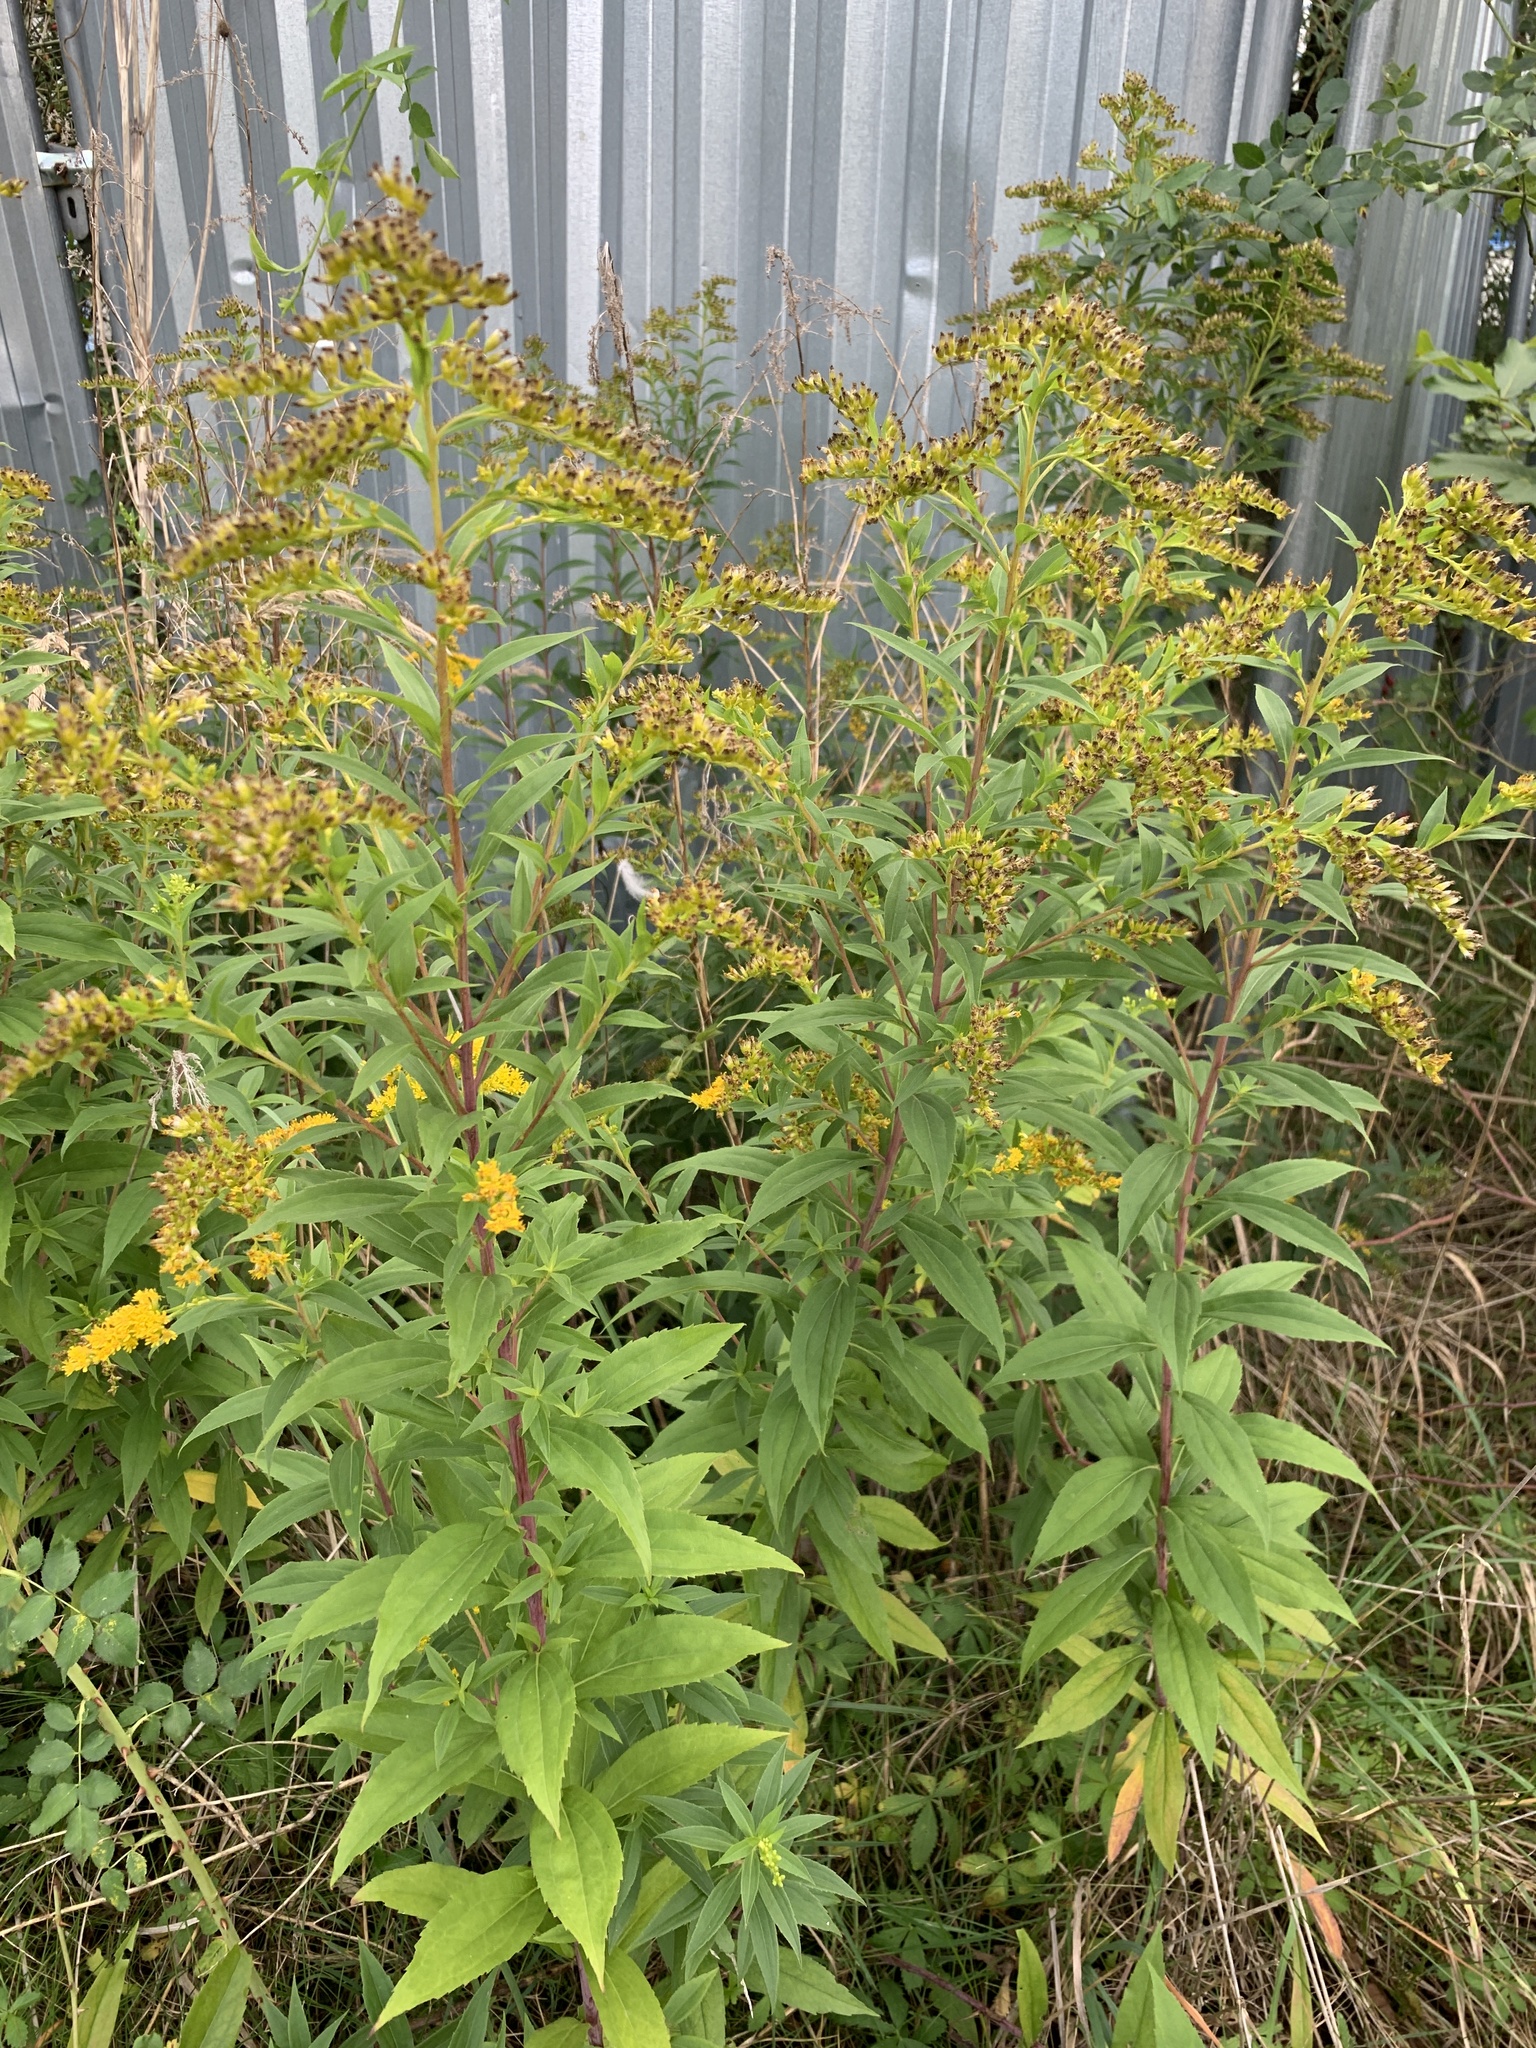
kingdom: Plantae
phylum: Tracheophyta
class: Magnoliopsida
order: Asterales
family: Asteraceae
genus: Solidago
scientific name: Solidago gigantea
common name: Giant goldenrod
